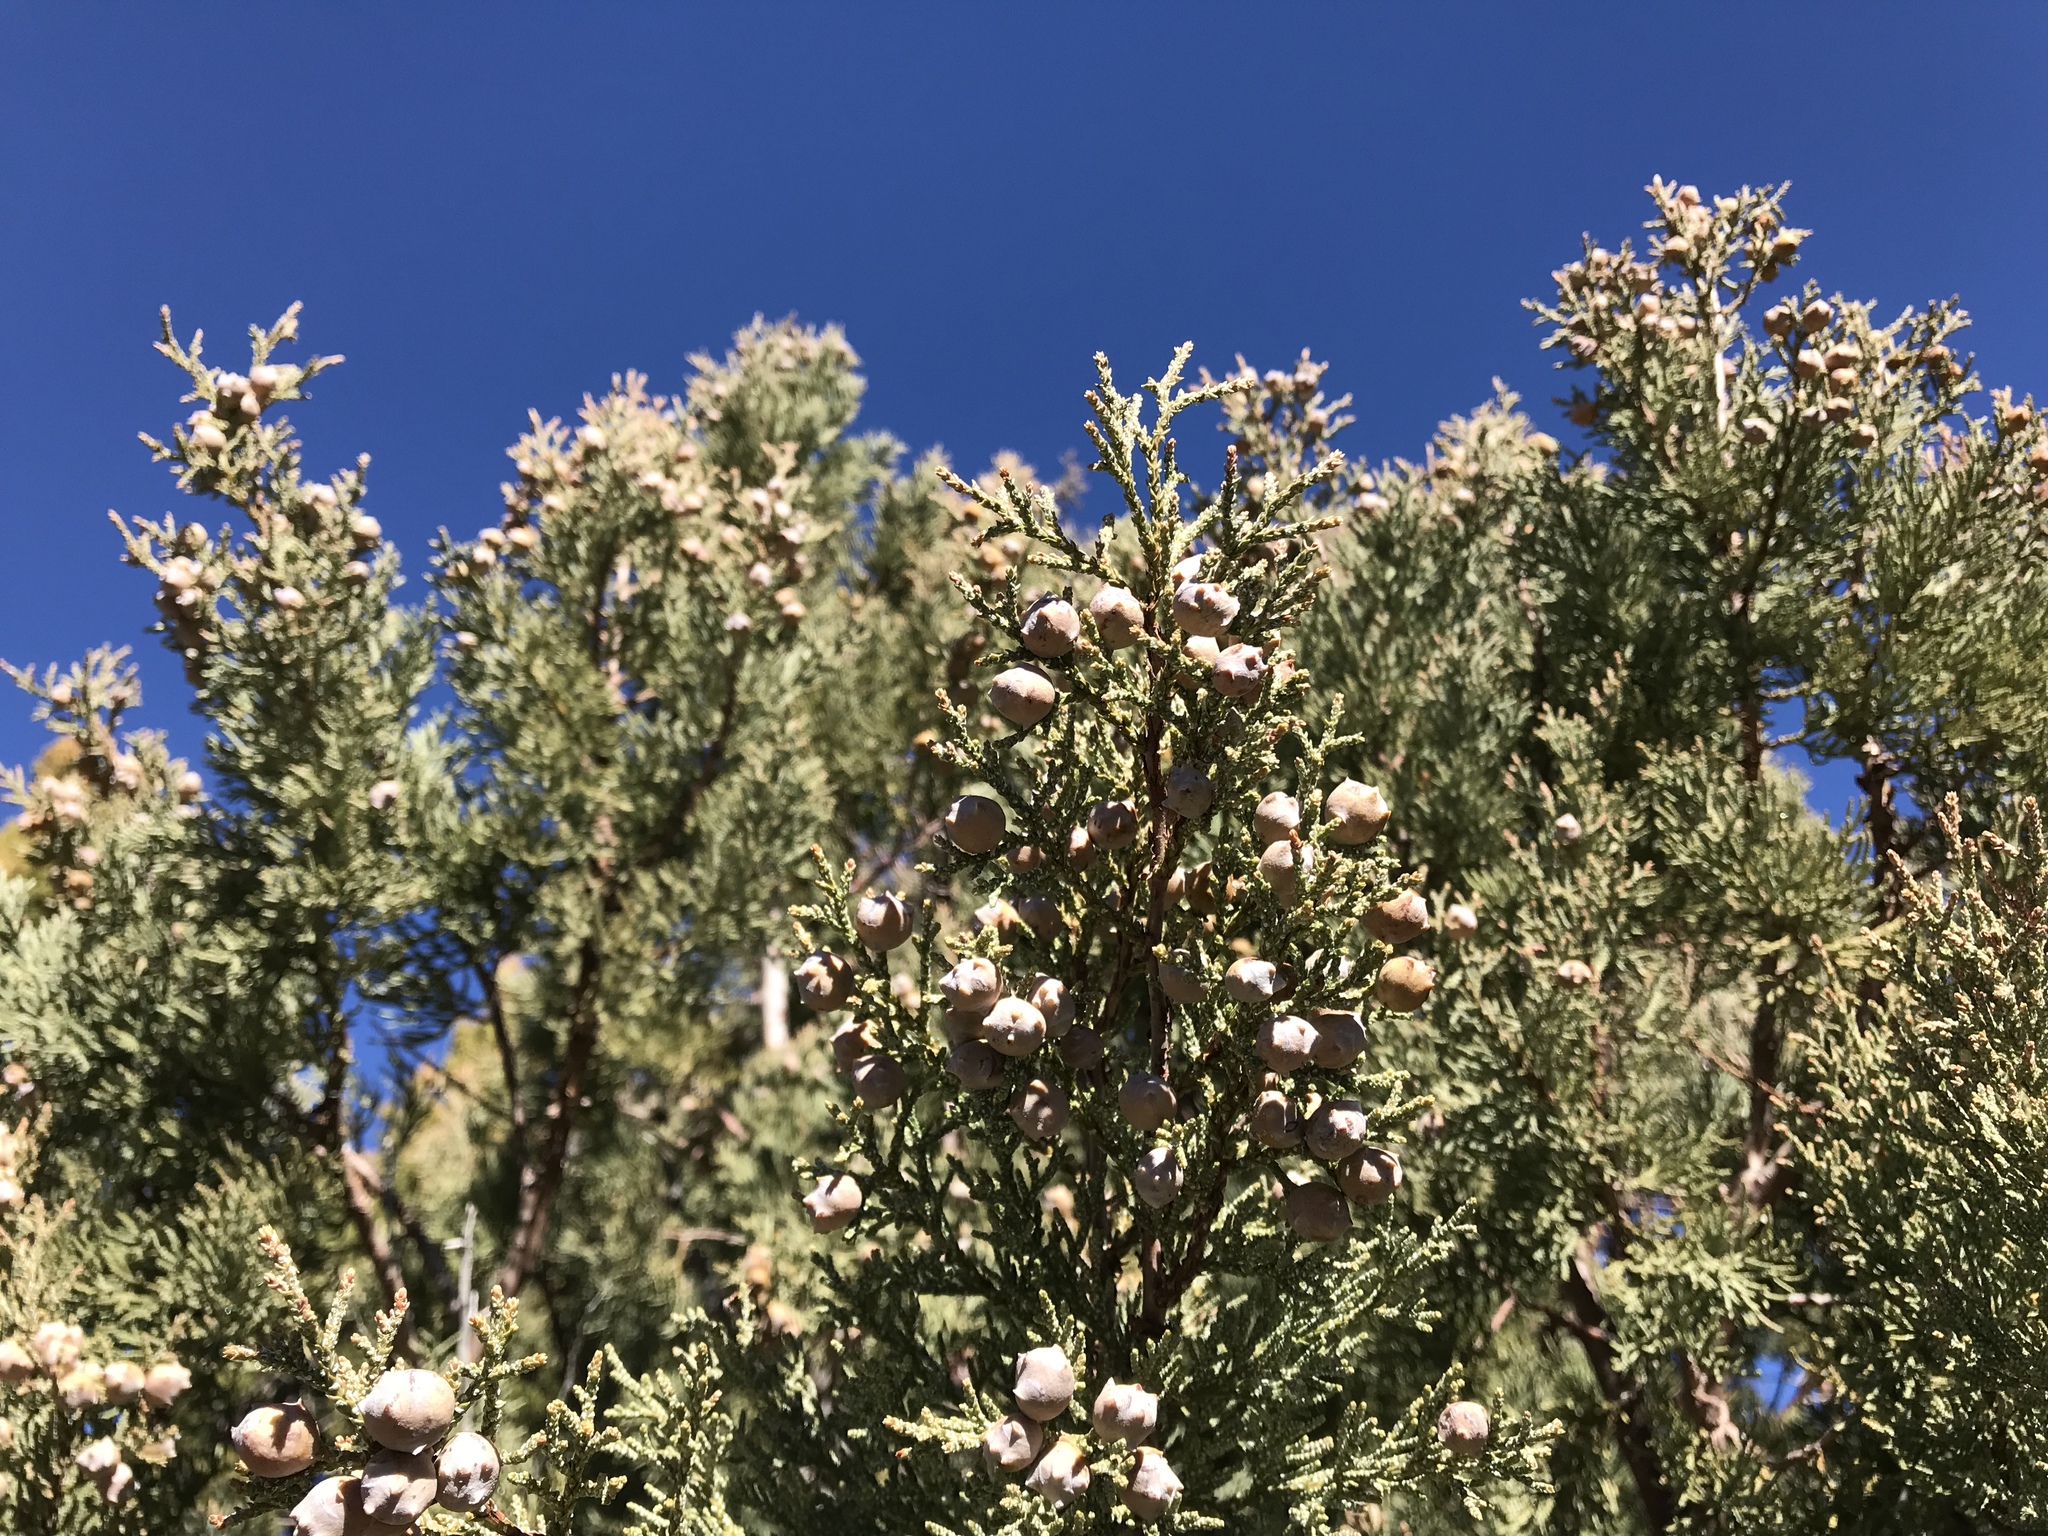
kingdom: Plantae
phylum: Tracheophyta
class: Pinopsida
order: Pinales
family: Cupressaceae
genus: Juniperus
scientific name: Juniperus deppeana
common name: Alligator juniper
